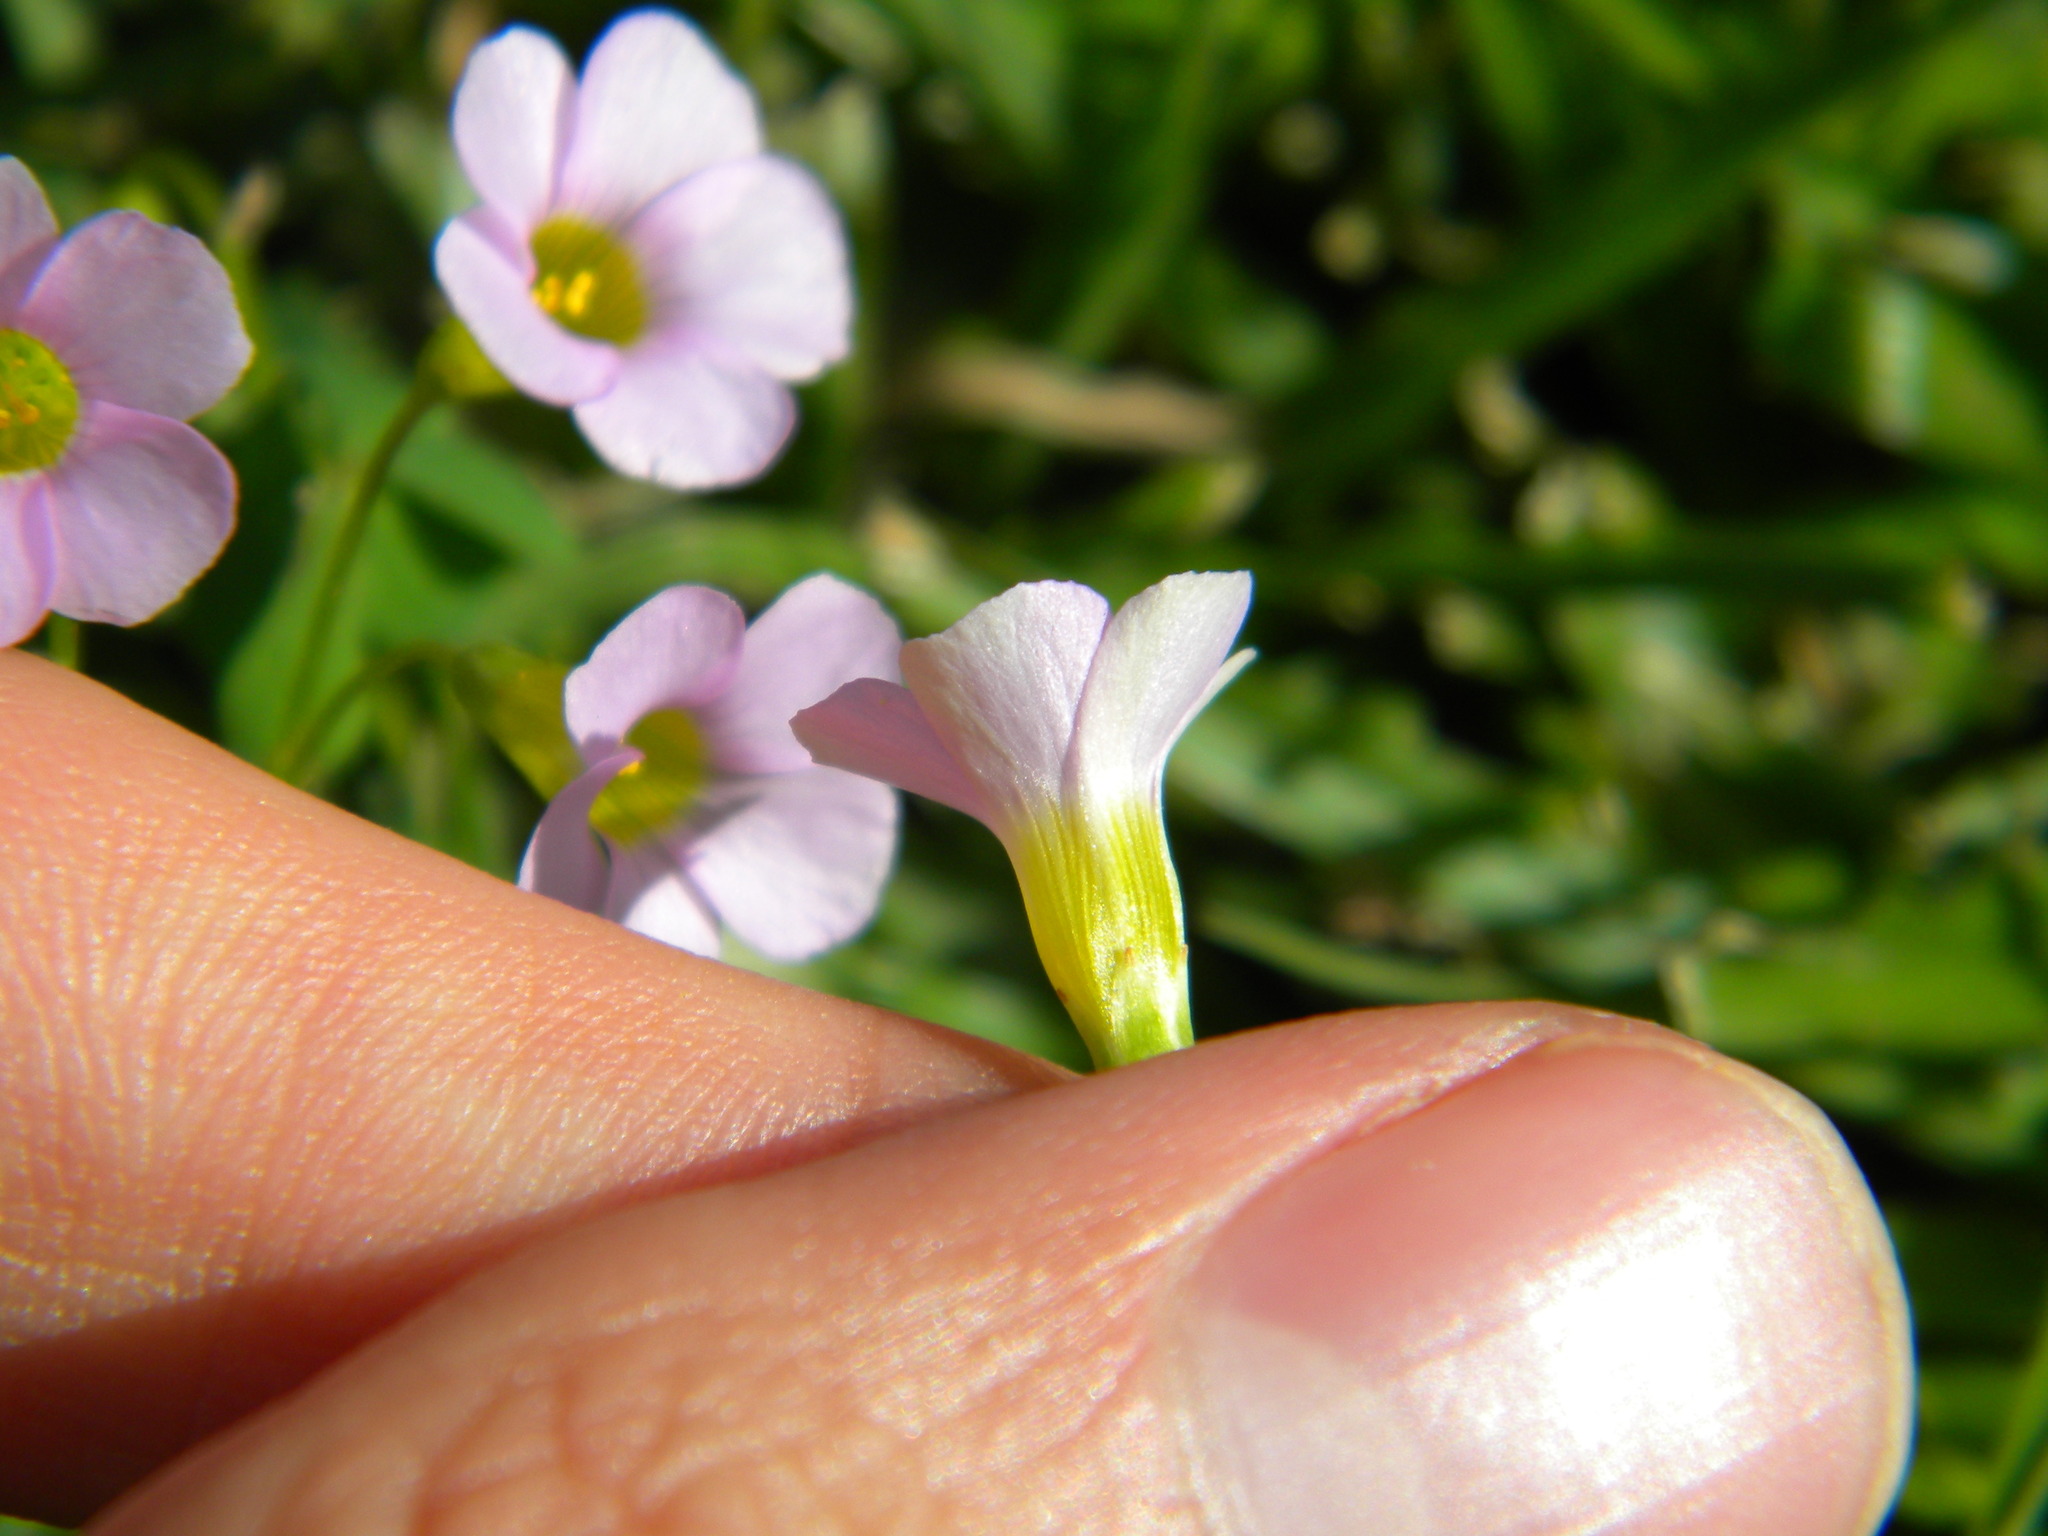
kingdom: Plantae
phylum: Tracheophyta
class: Magnoliopsida
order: Oxalidales
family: Oxalidaceae
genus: Oxalis
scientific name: Oxalis caprina
